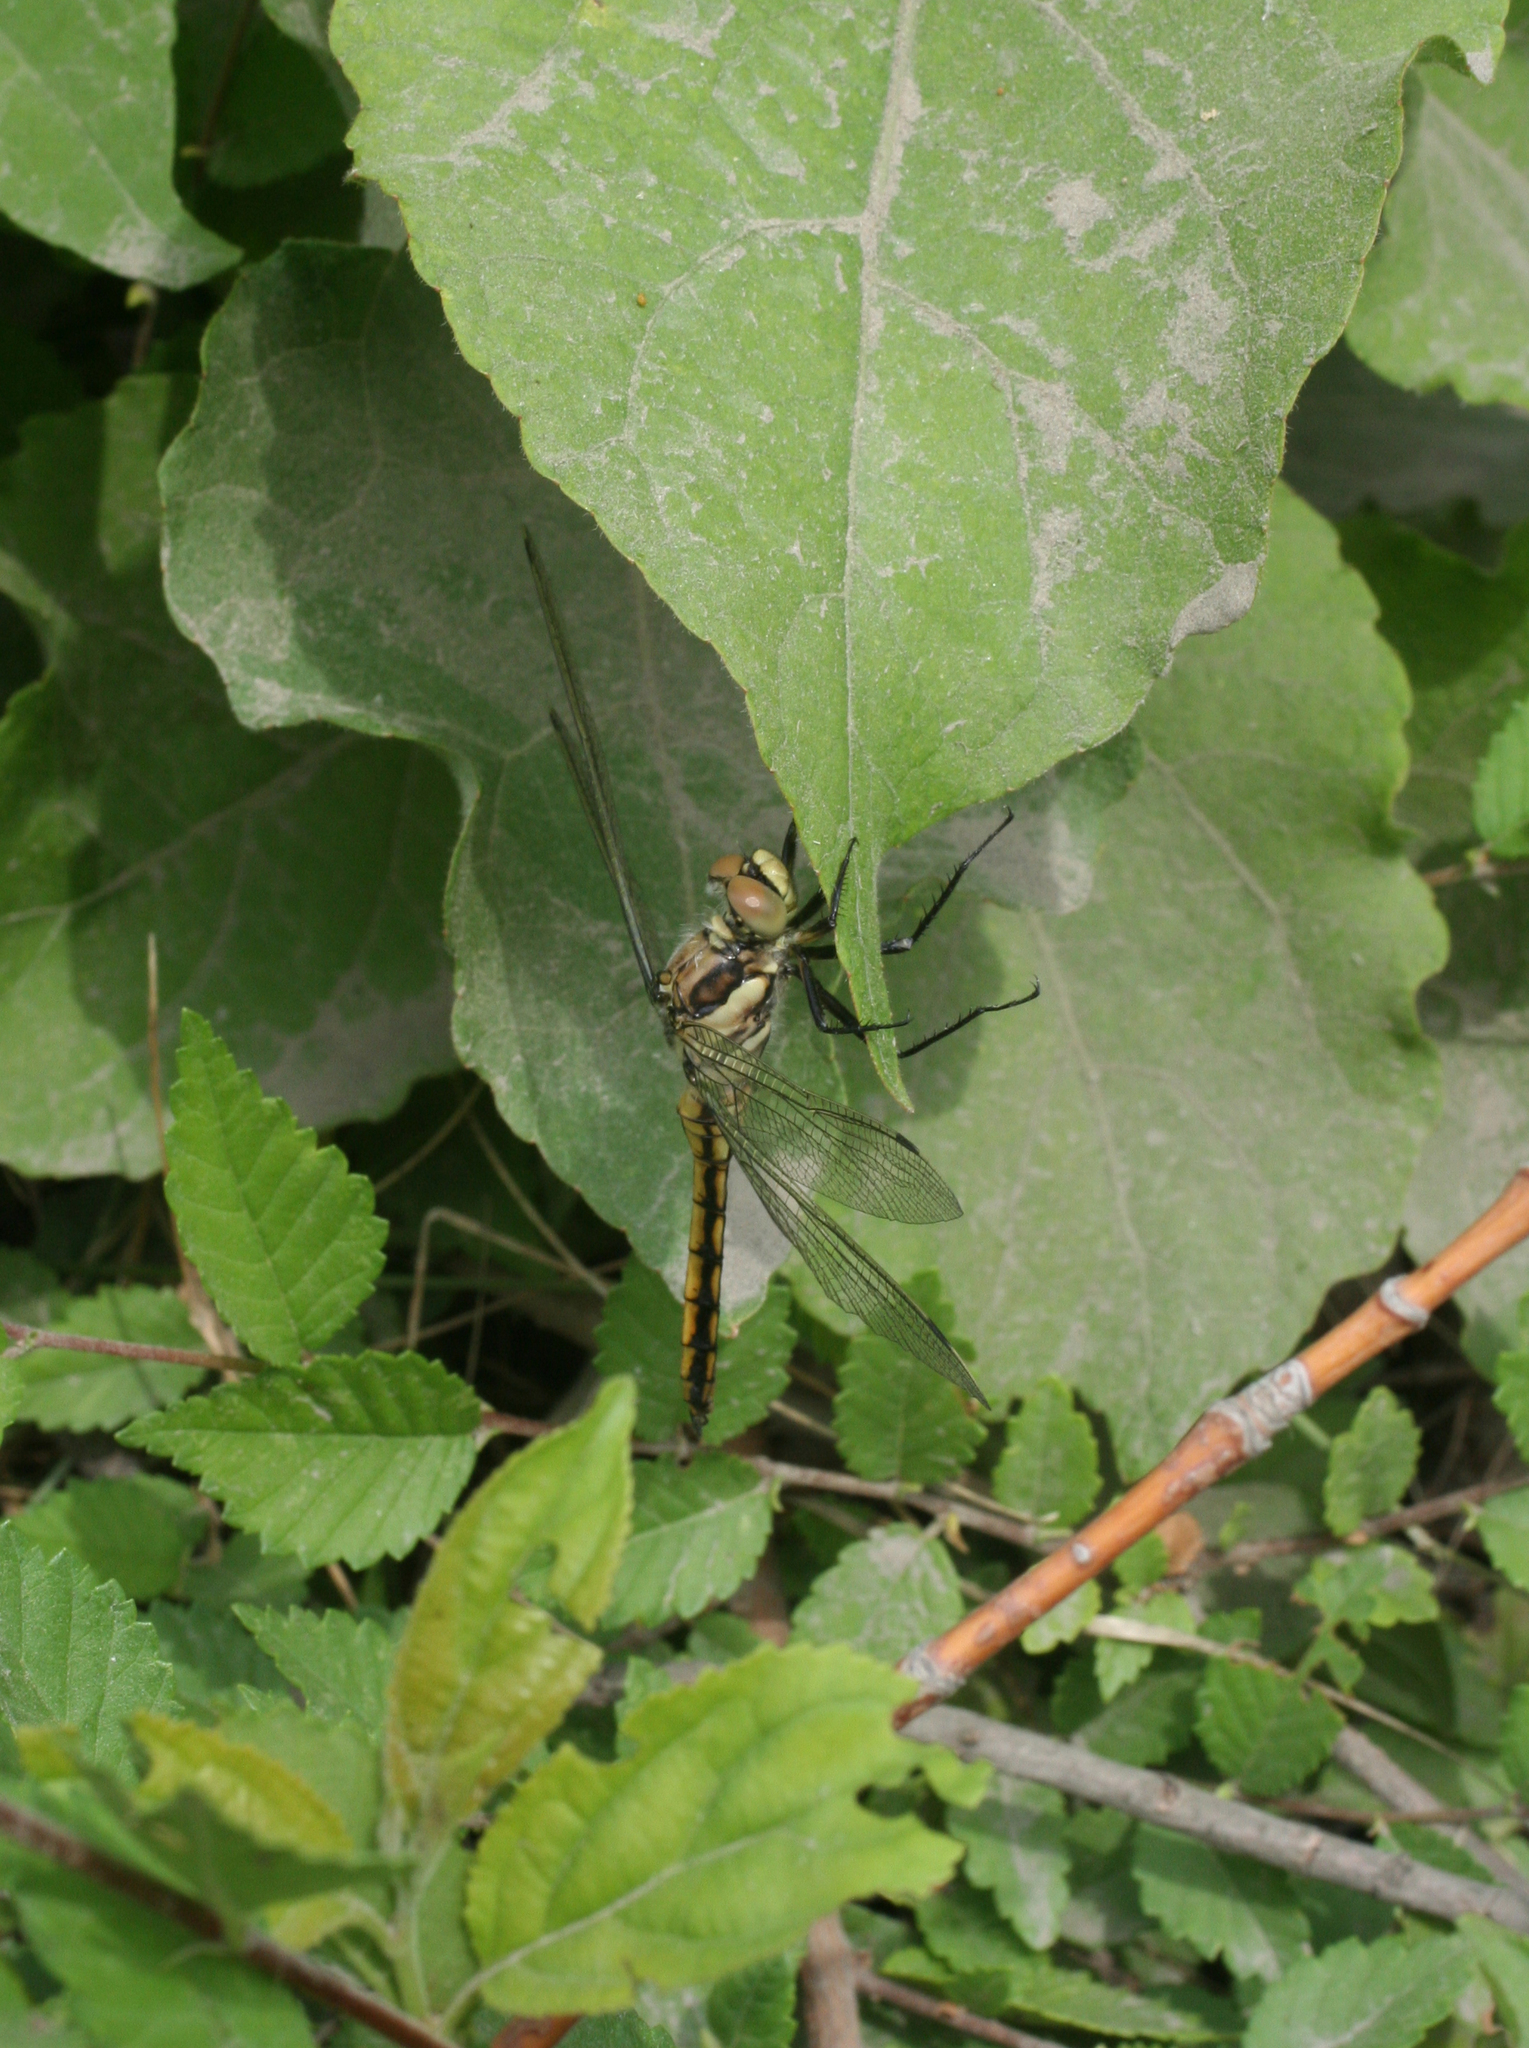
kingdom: Animalia
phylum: Arthropoda
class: Insecta
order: Odonata
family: Libellulidae
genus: Orthetrum
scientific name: Orthetrum cancellatum
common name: Black-tailed skimmer
